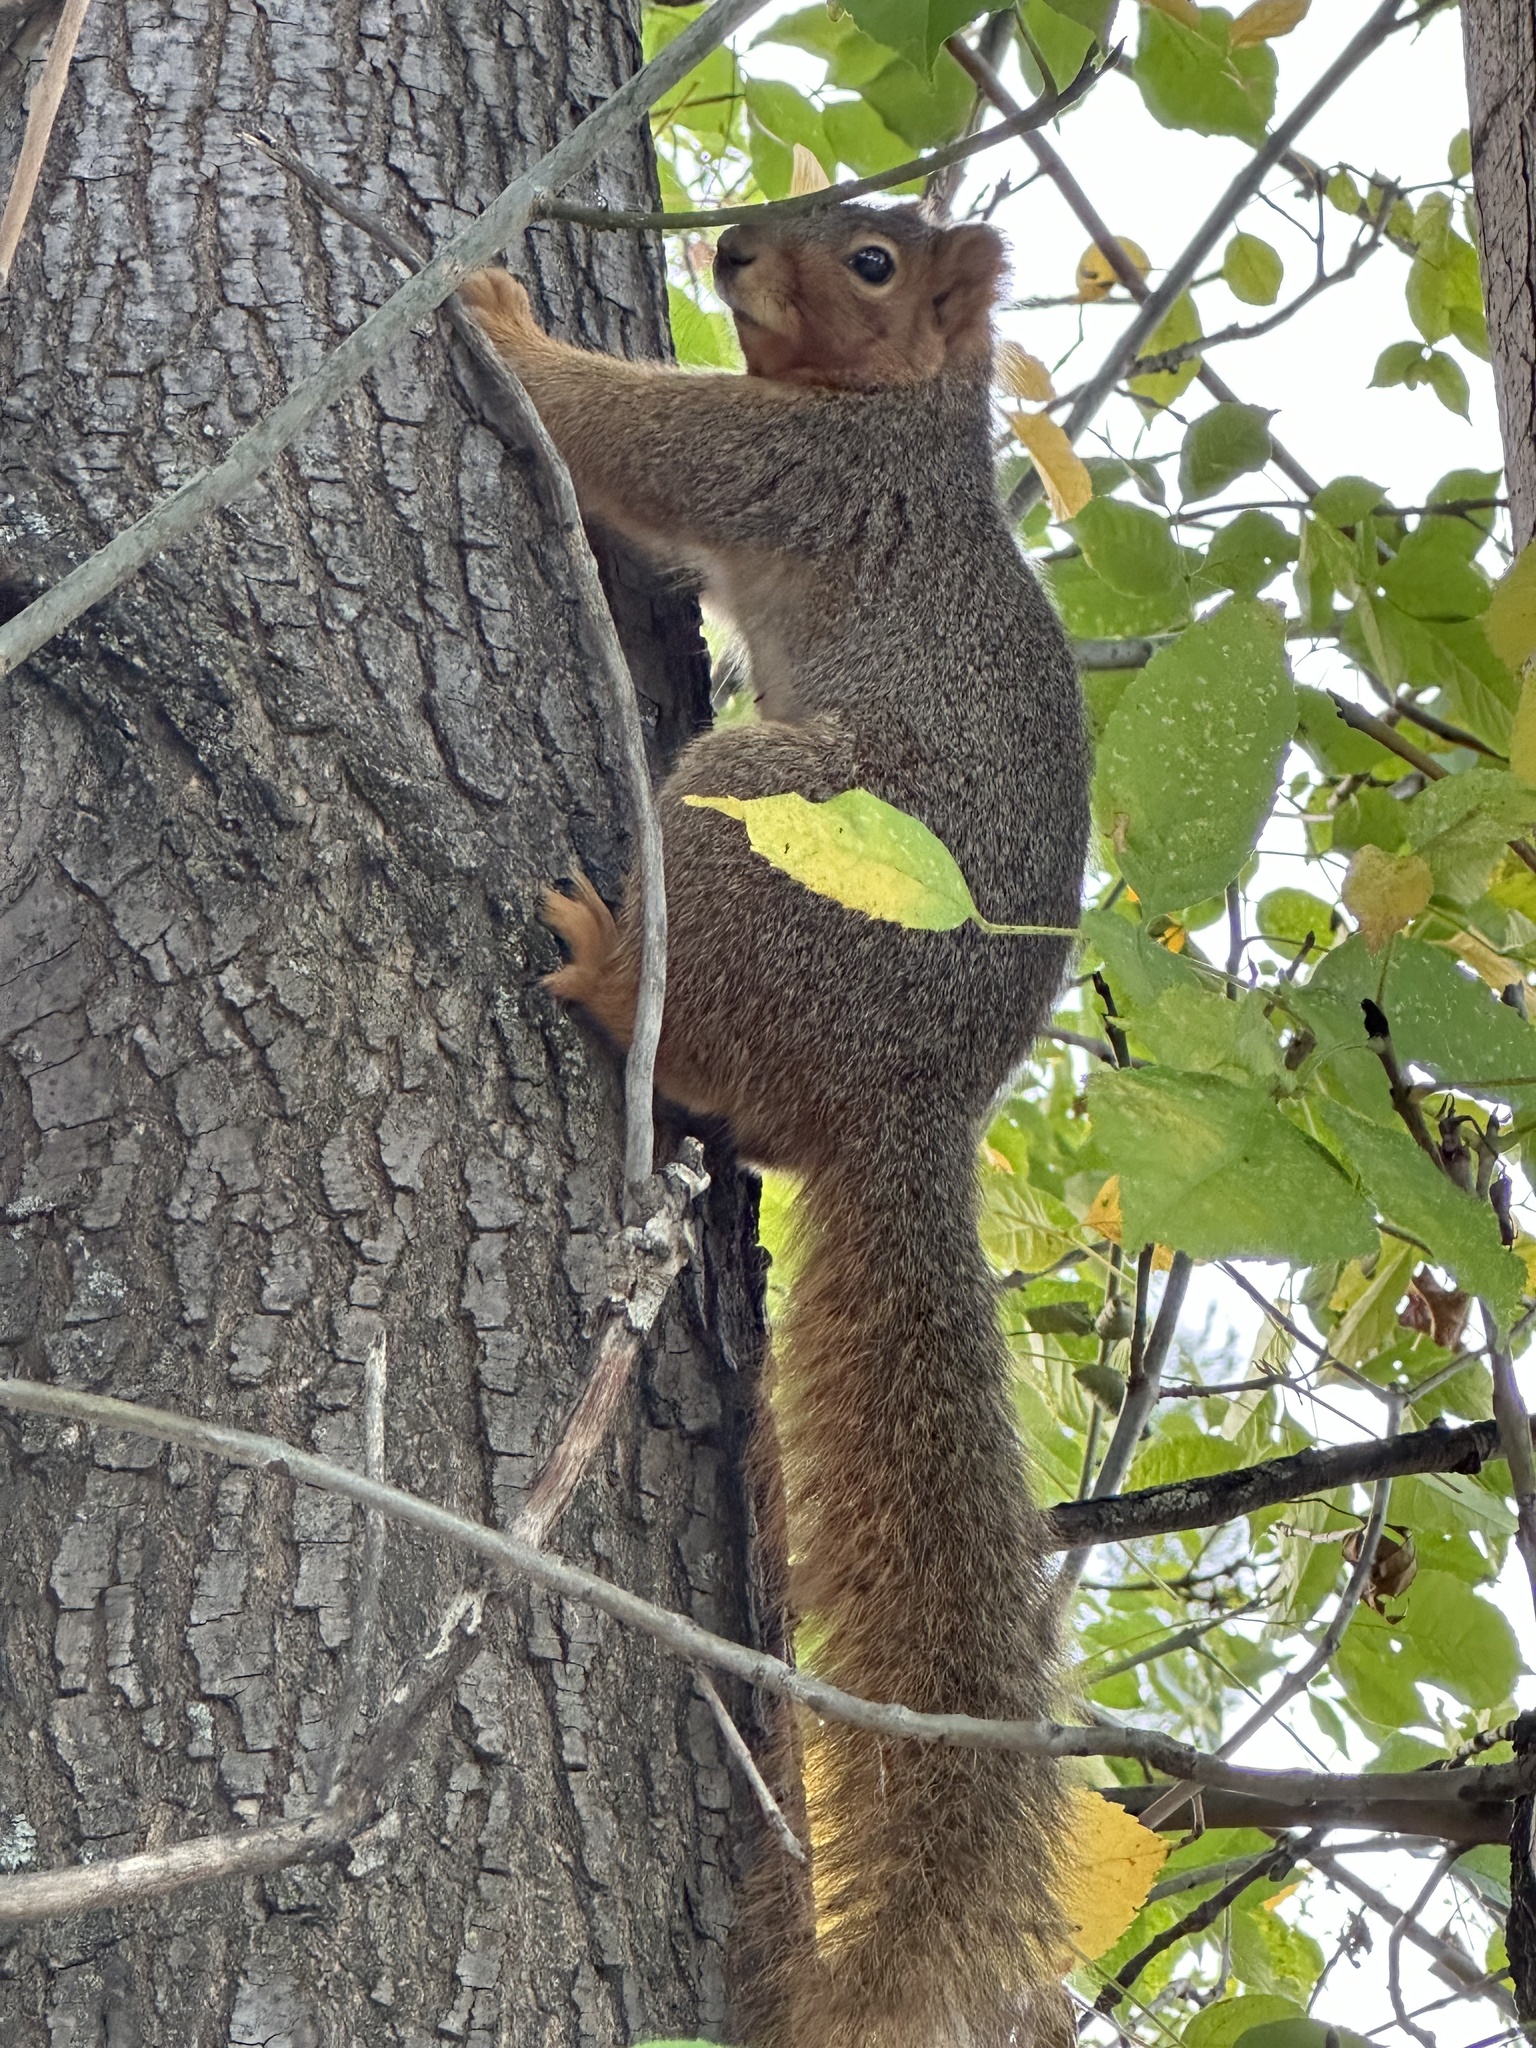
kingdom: Animalia
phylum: Chordata
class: Mammalia
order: Rodentia
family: Sciuridae
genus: Sciurus
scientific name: Sciurus niger
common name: Fox squirrel
